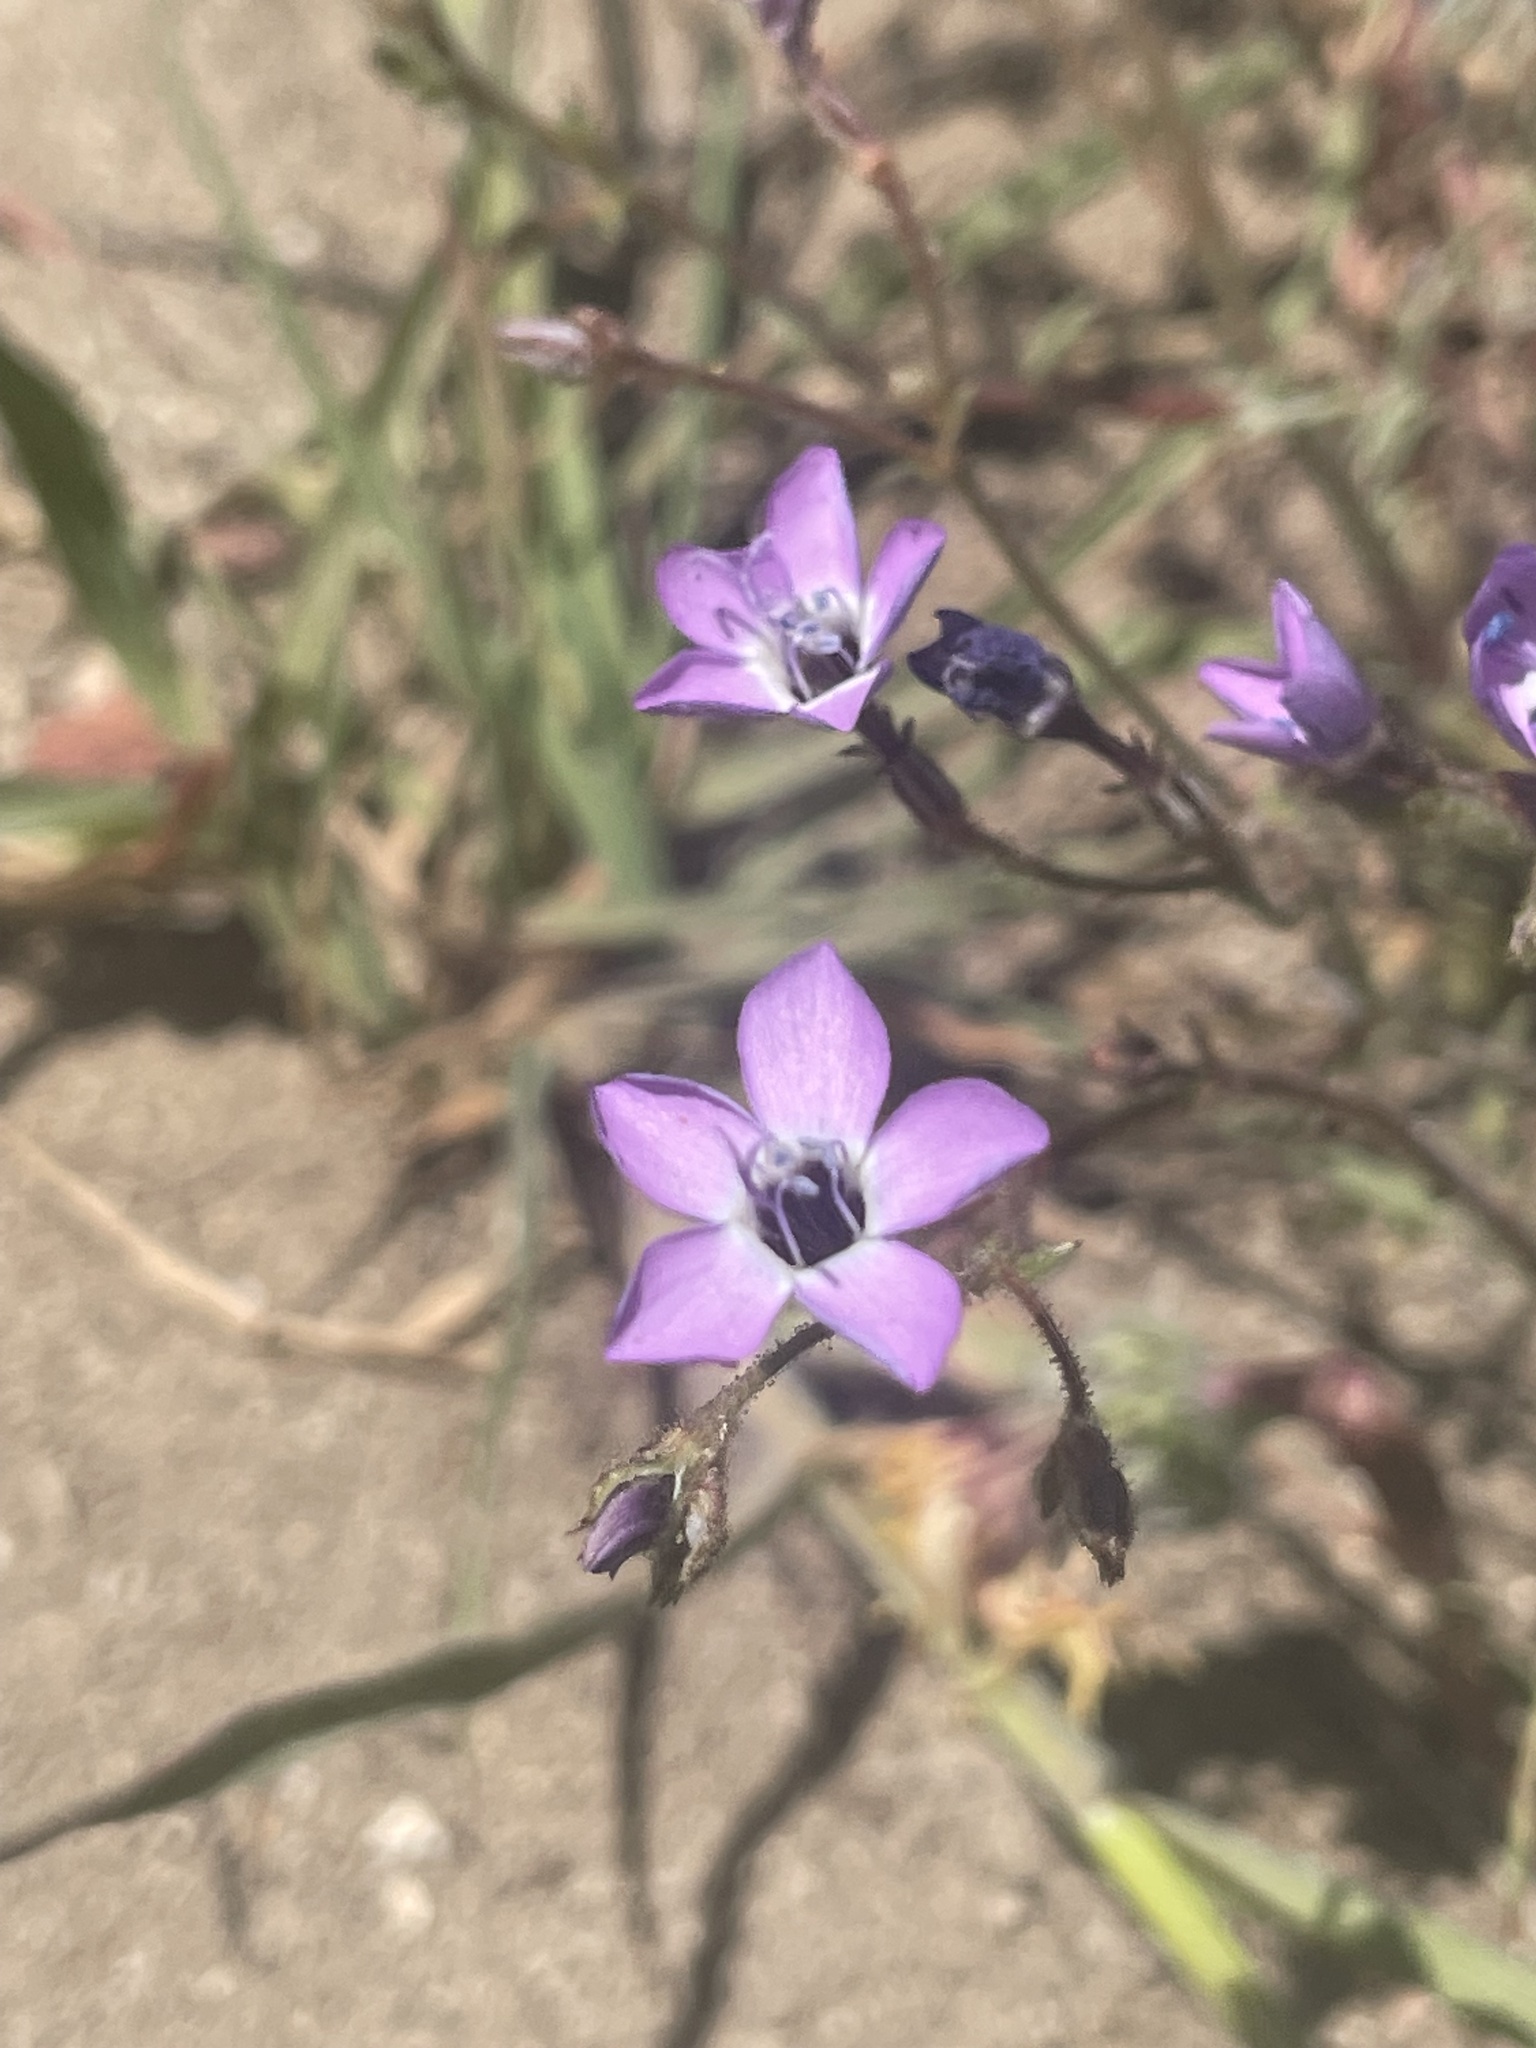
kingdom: Plantae
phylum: Tracheophyta
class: Magnoliopsida
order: Ericales
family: Polemoniaceae
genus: Gilia
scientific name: Gilia tenuiflora
